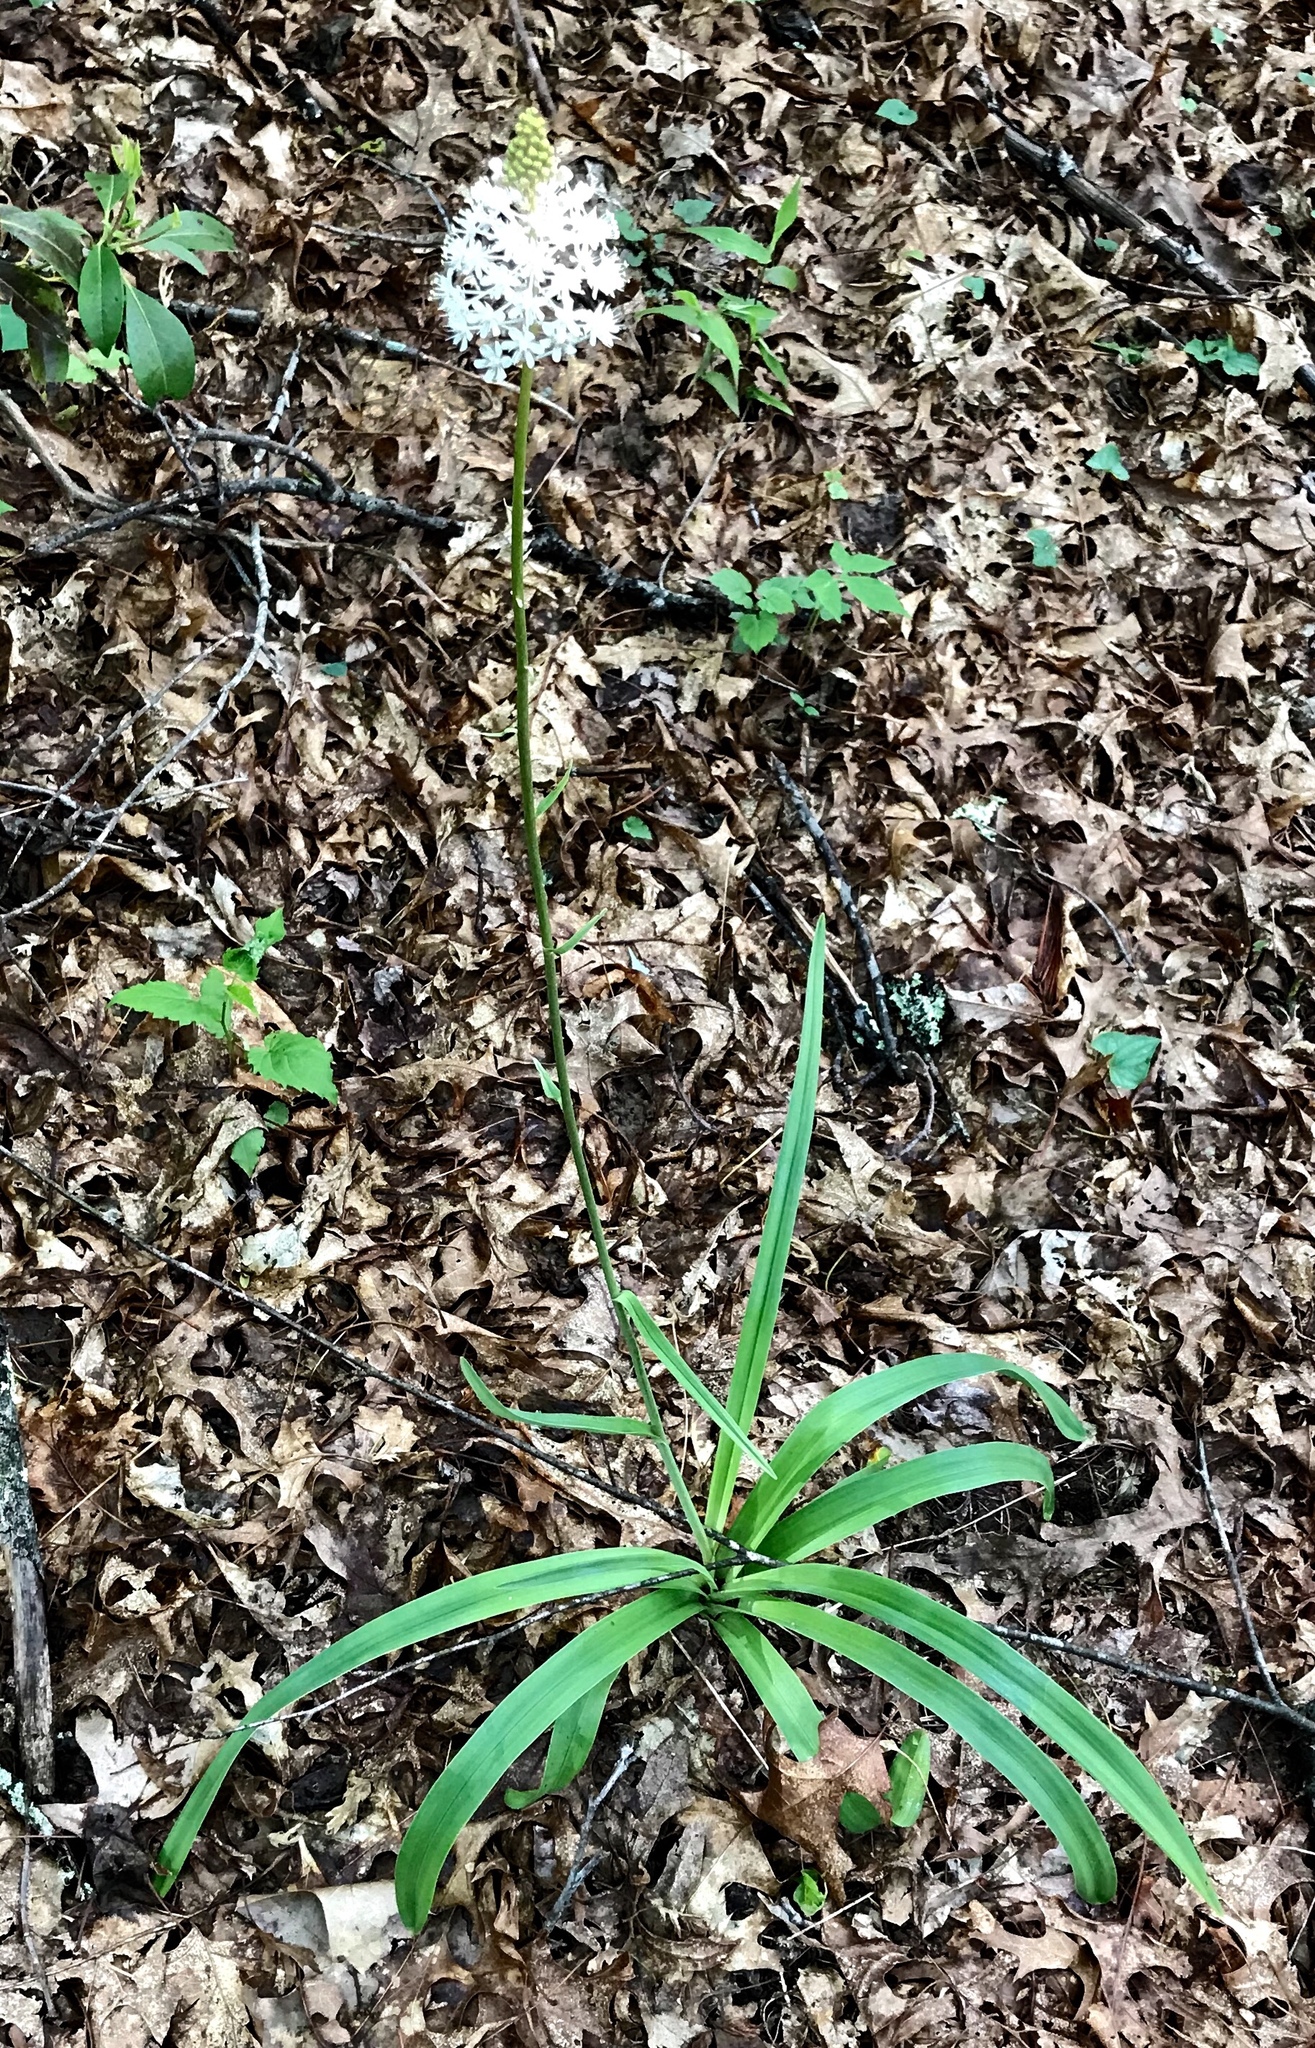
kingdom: Plantae
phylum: Tracheophyta
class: Liliopsida
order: Liliales
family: Melanthiaceae
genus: Amianthium
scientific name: Amianthium muscitoxicum
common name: Fly-poison
